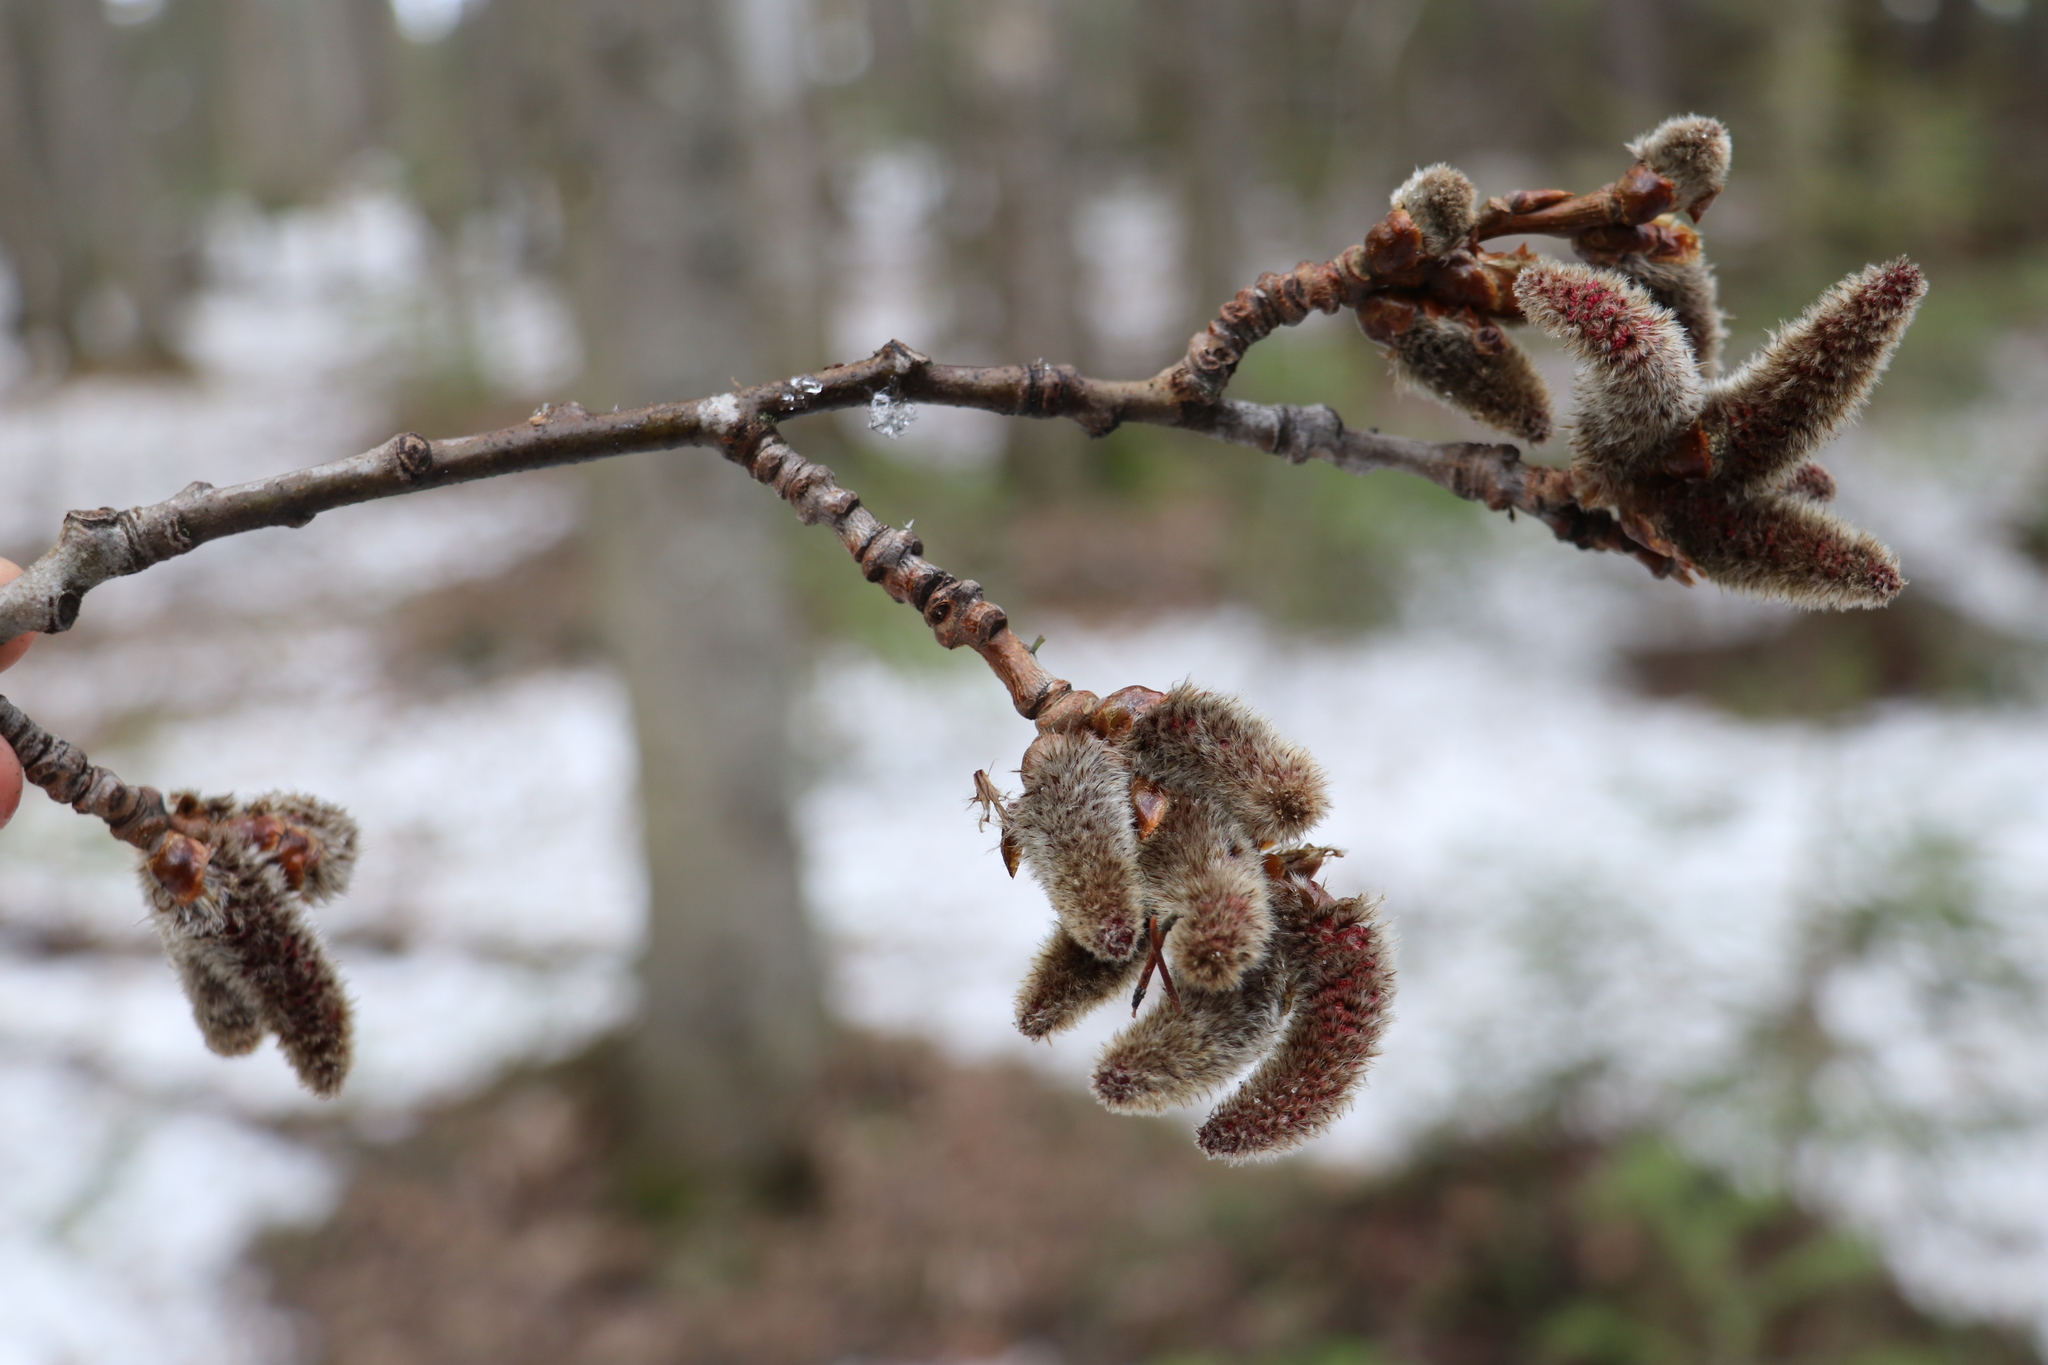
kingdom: Plantae
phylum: Tracheophyta
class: Magnoliopsida
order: Malpighiales
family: Salicaceae
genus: Populus
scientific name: Populus tremula
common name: European aspen
